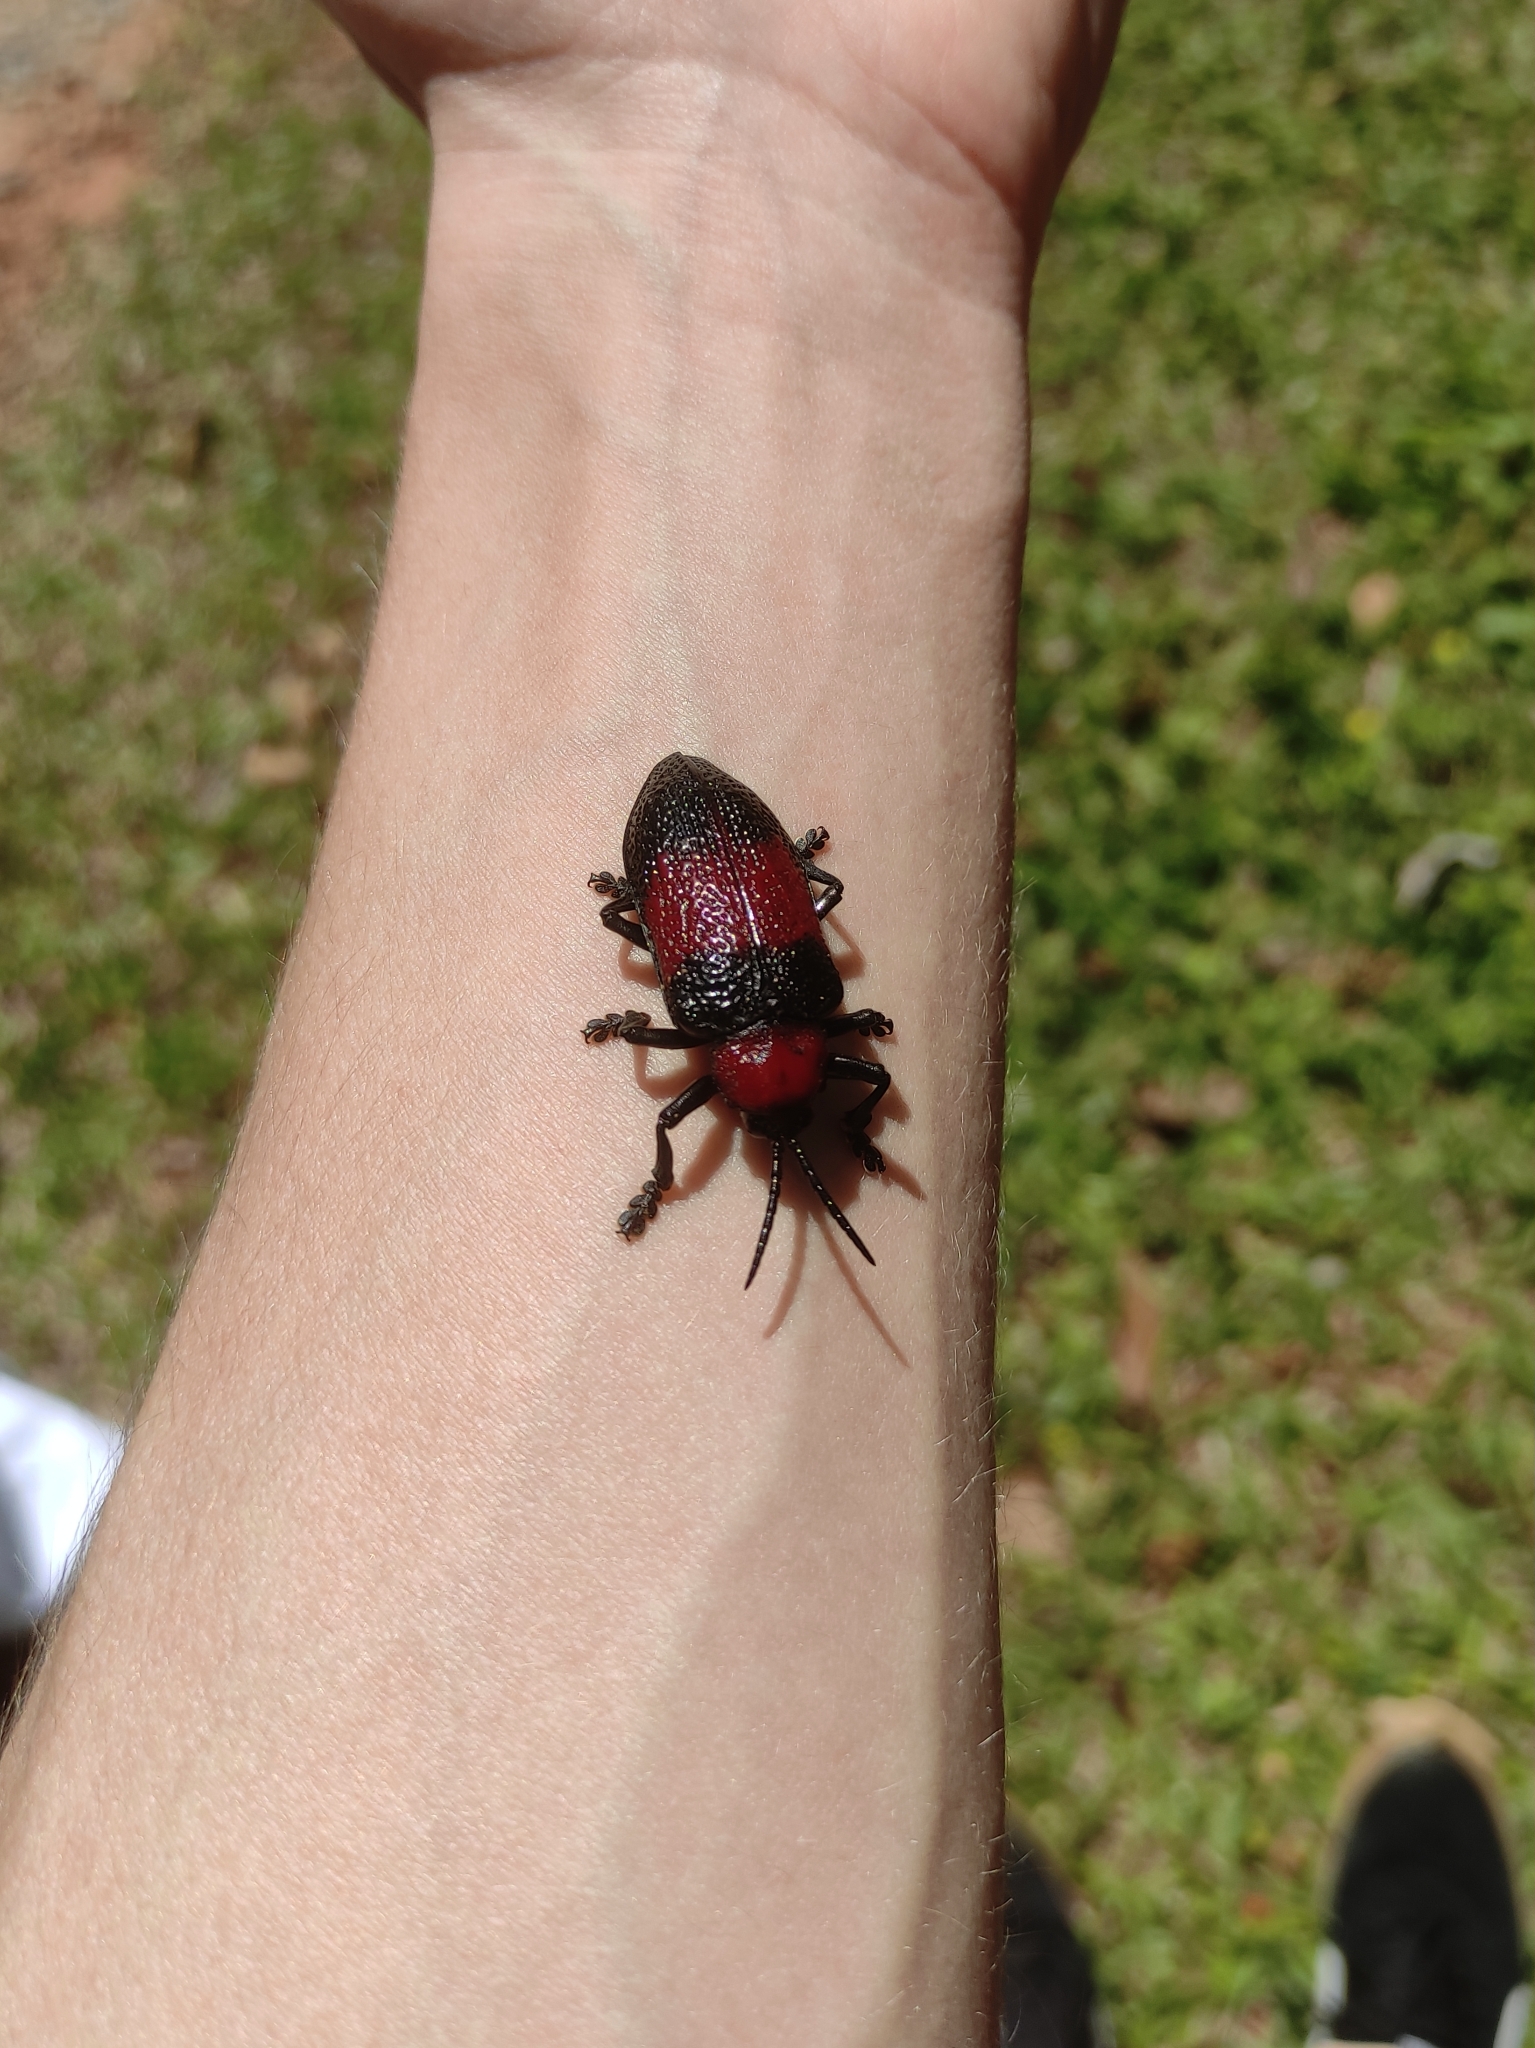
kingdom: Animalia
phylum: Arthropoda
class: Insecta
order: Coleoptera
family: Chrysomelidae
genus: Coraliomela
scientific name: Coraliomela aeneoplagiata
